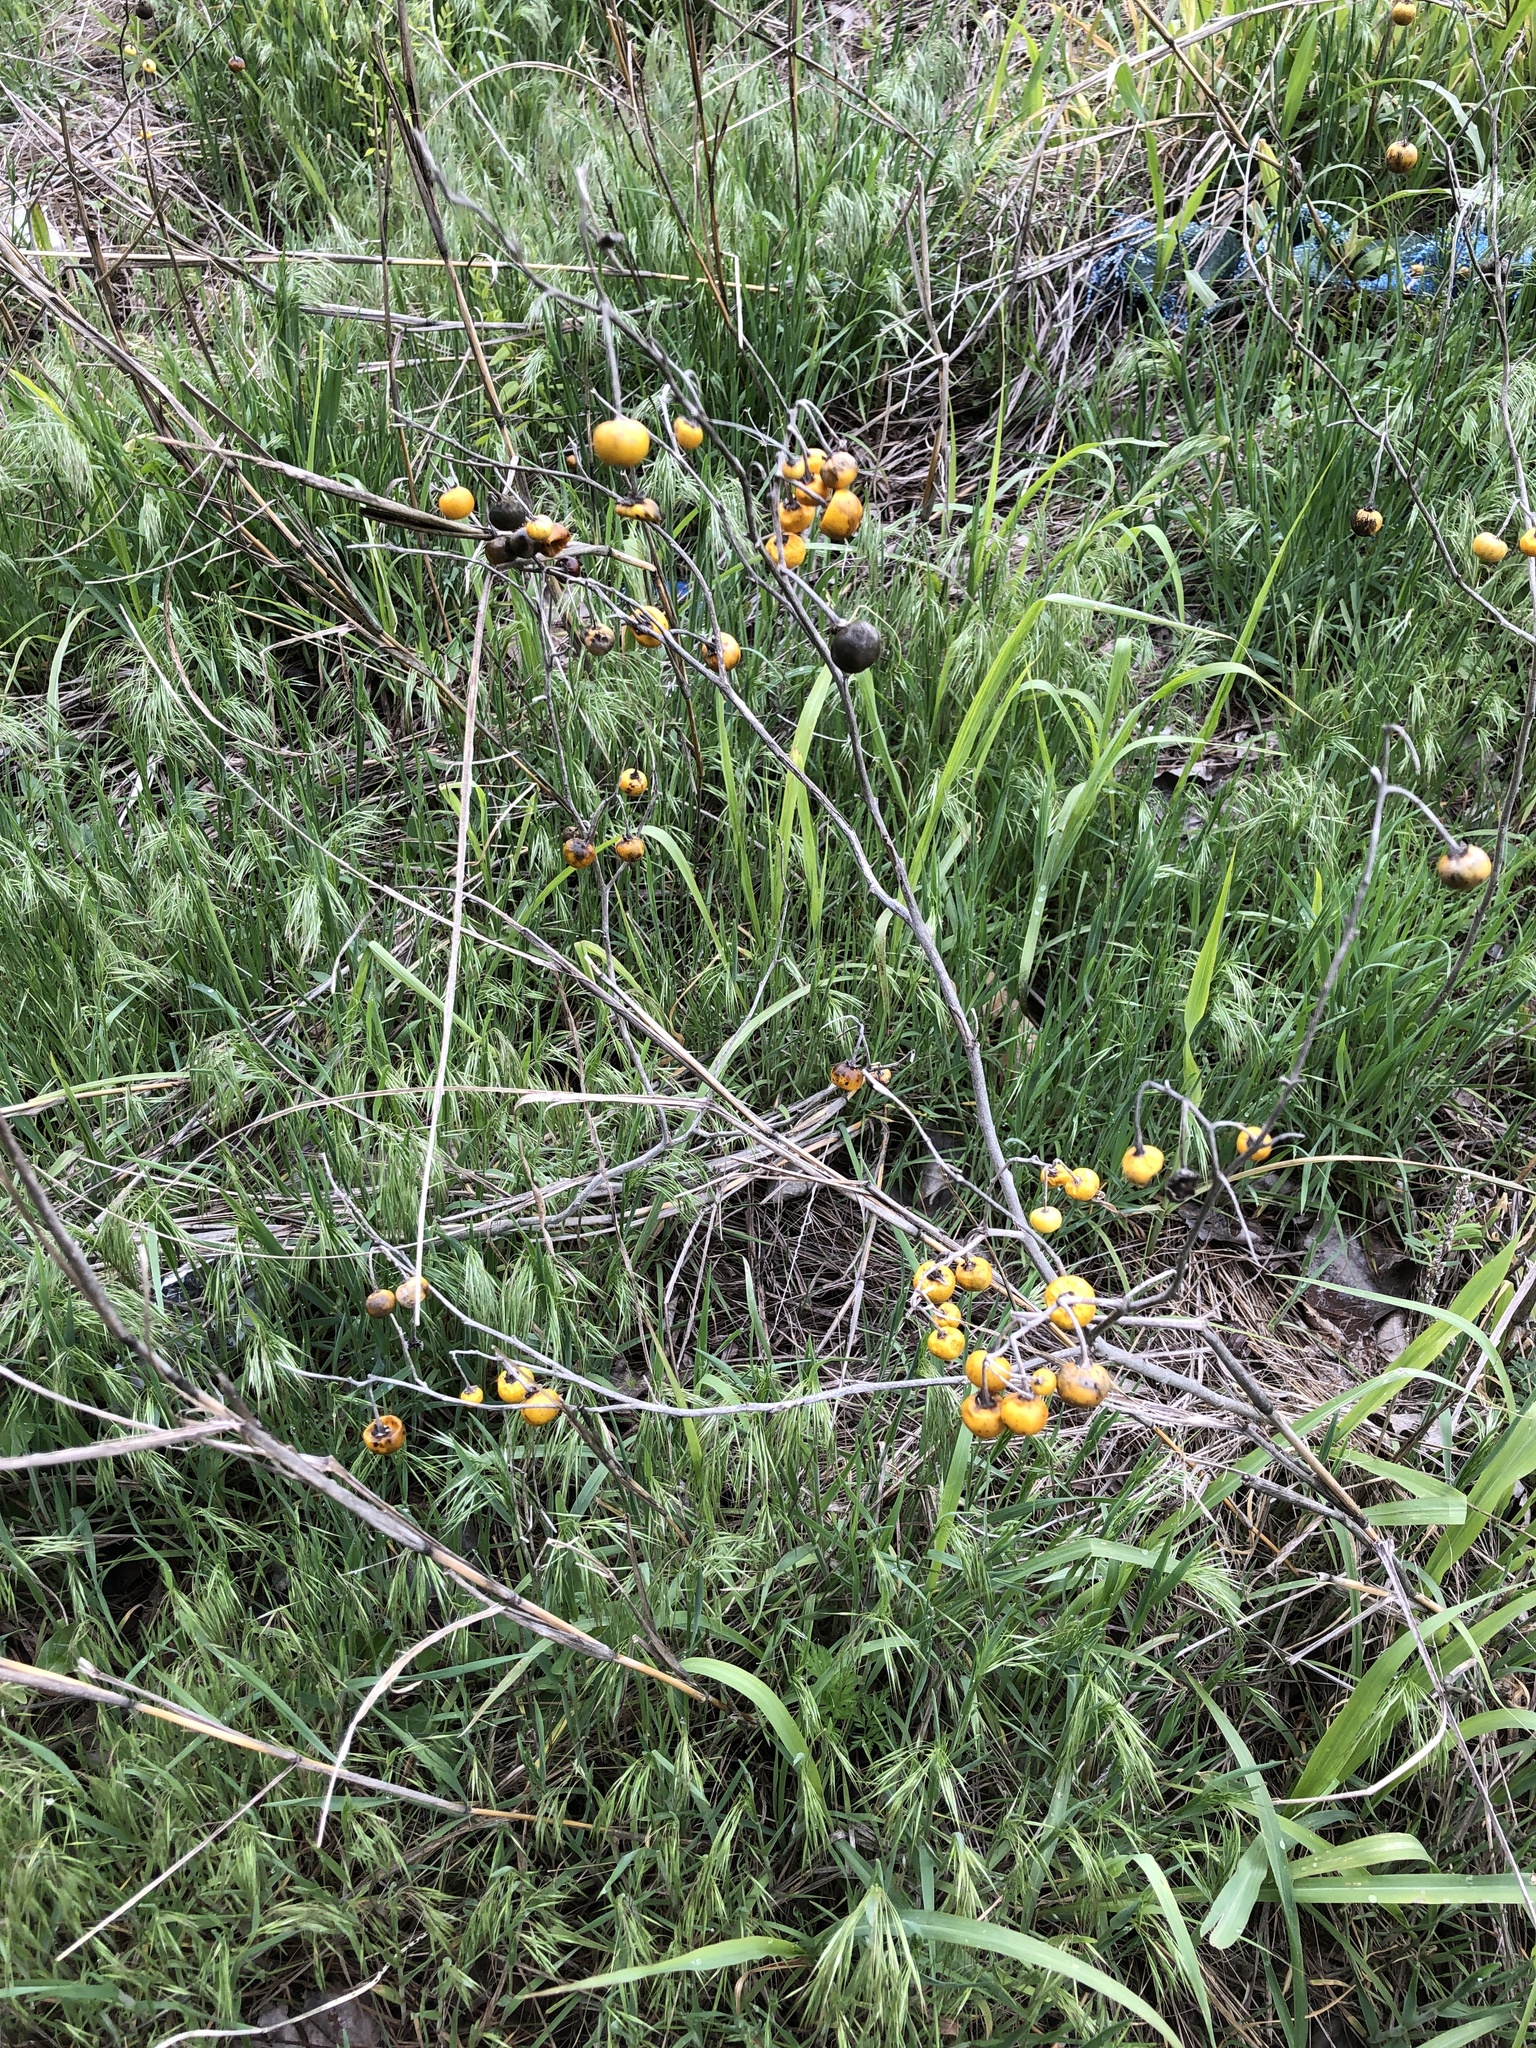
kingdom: Plantae
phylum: Tracheophyta
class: Magnoliopsida
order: Solanales
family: Solanaceae
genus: Solanum
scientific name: Solanum elaeagnifolium
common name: Silverleaf nightshade
